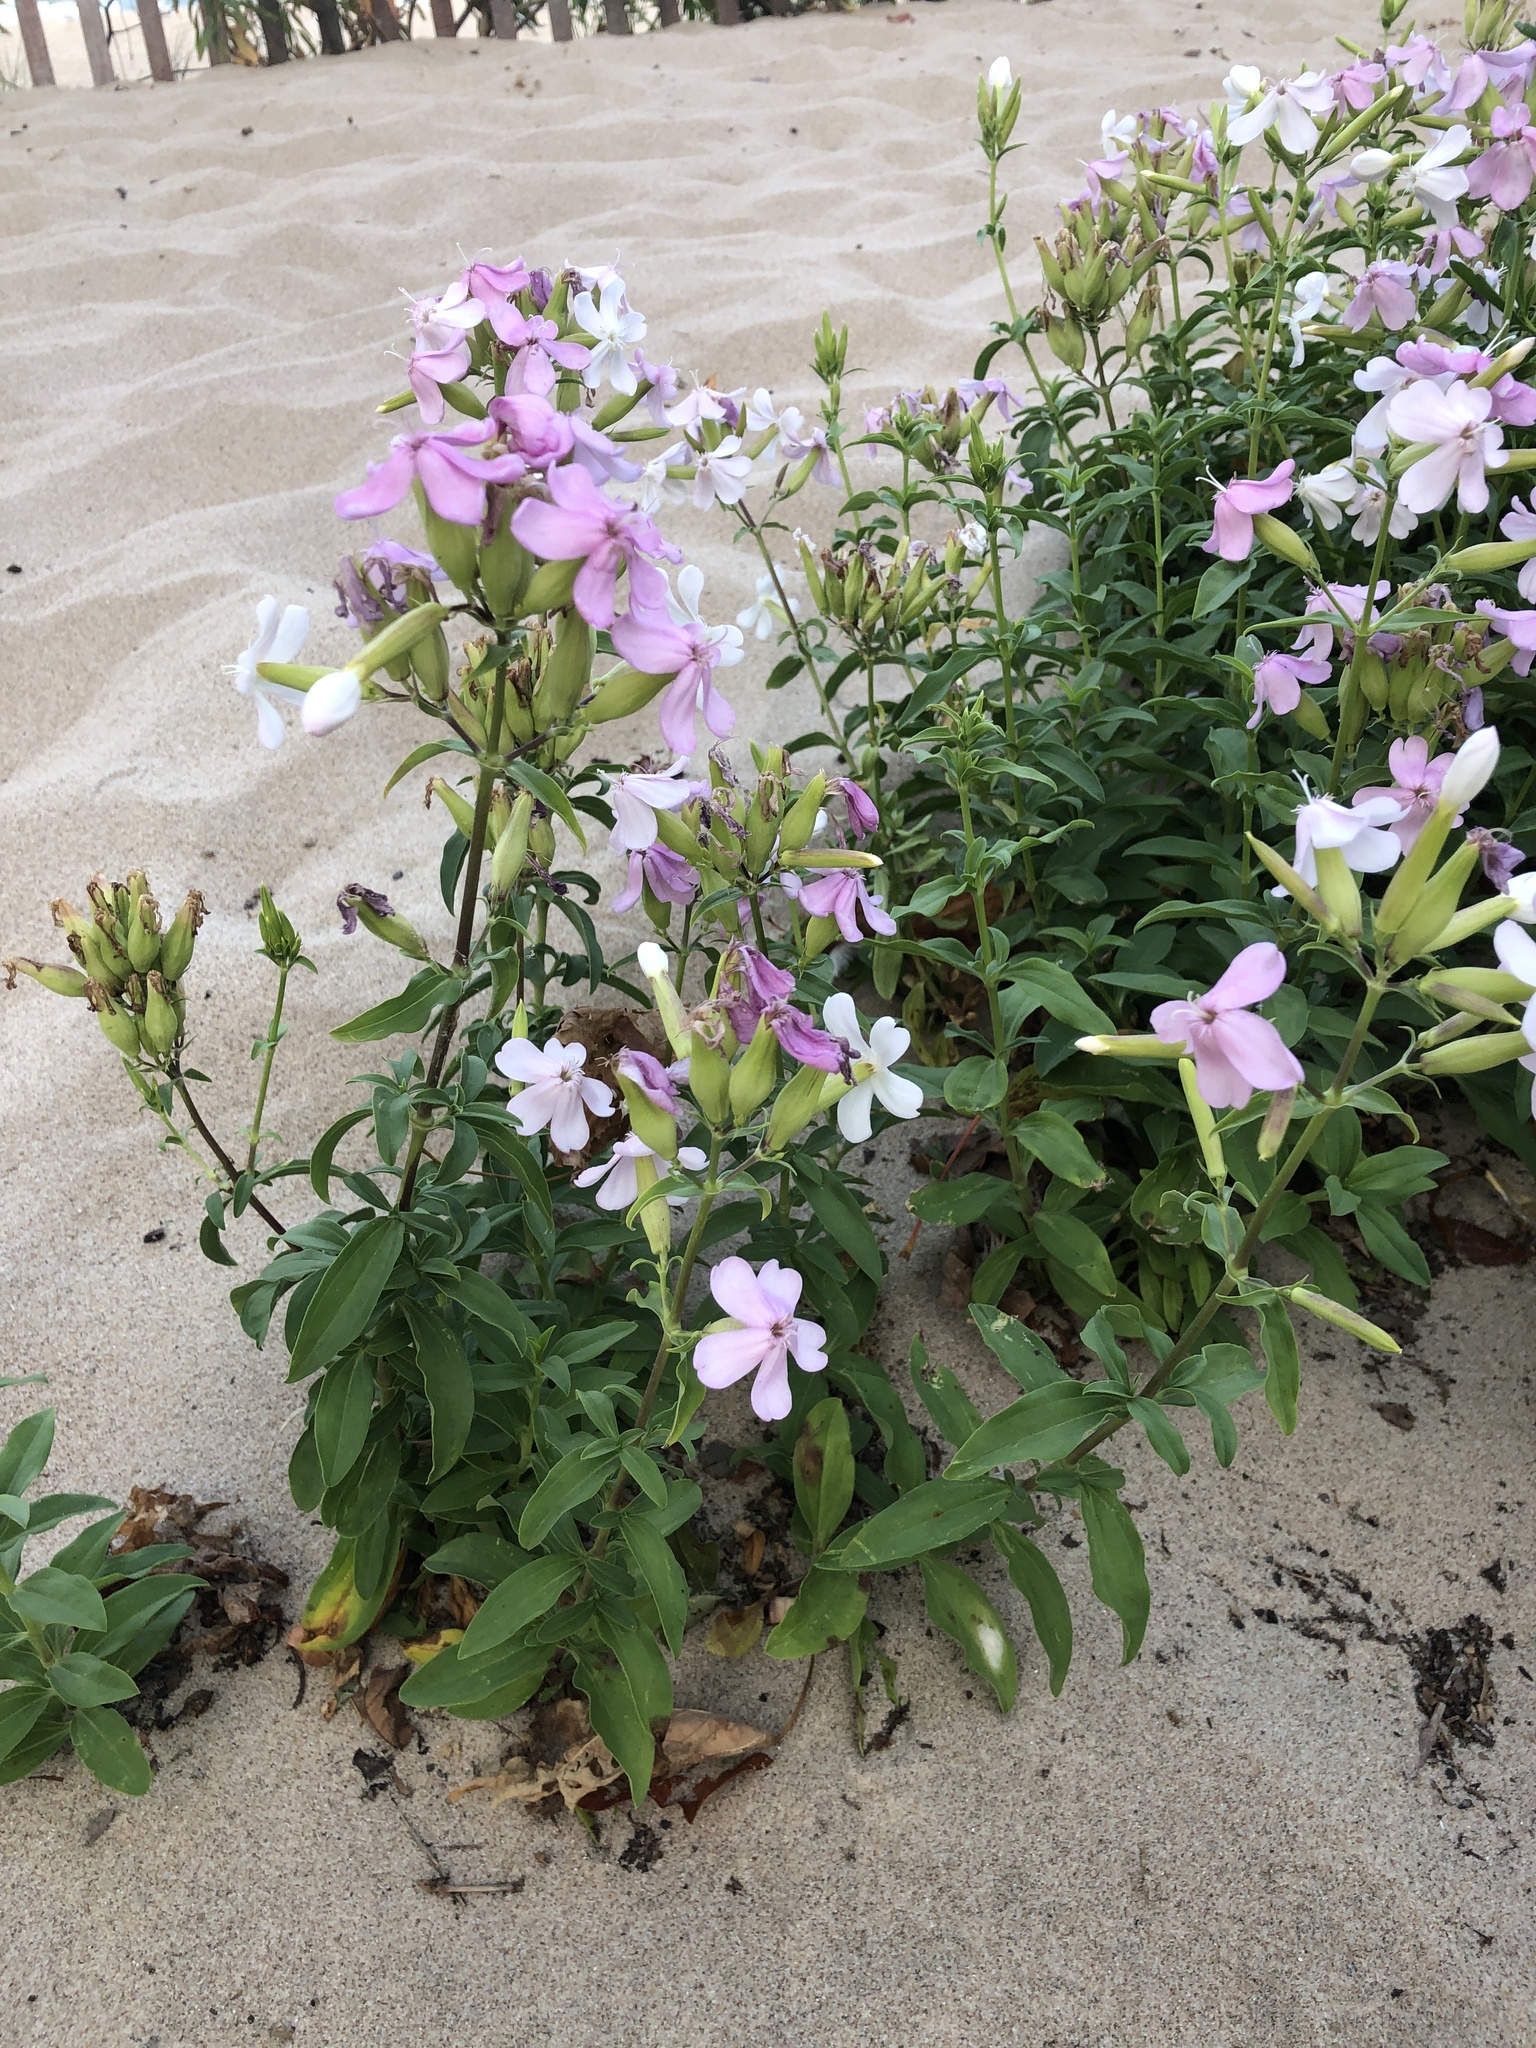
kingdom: Plantae
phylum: Tracheophyta
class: Magnoliopsida
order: Caryophyllales
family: Caryophyllaceae
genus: Saponaria
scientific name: Saponaria officinalis
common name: Soapwort
